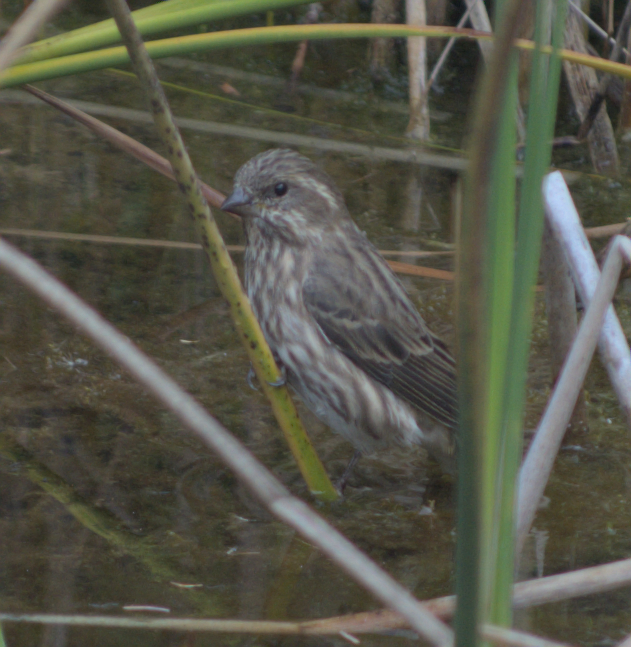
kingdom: Animalia
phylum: Chordata
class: Aves
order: Passeriformes
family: Fringillidae
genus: Haemorhous
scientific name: Haemorhous purpureus
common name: Purple finch
